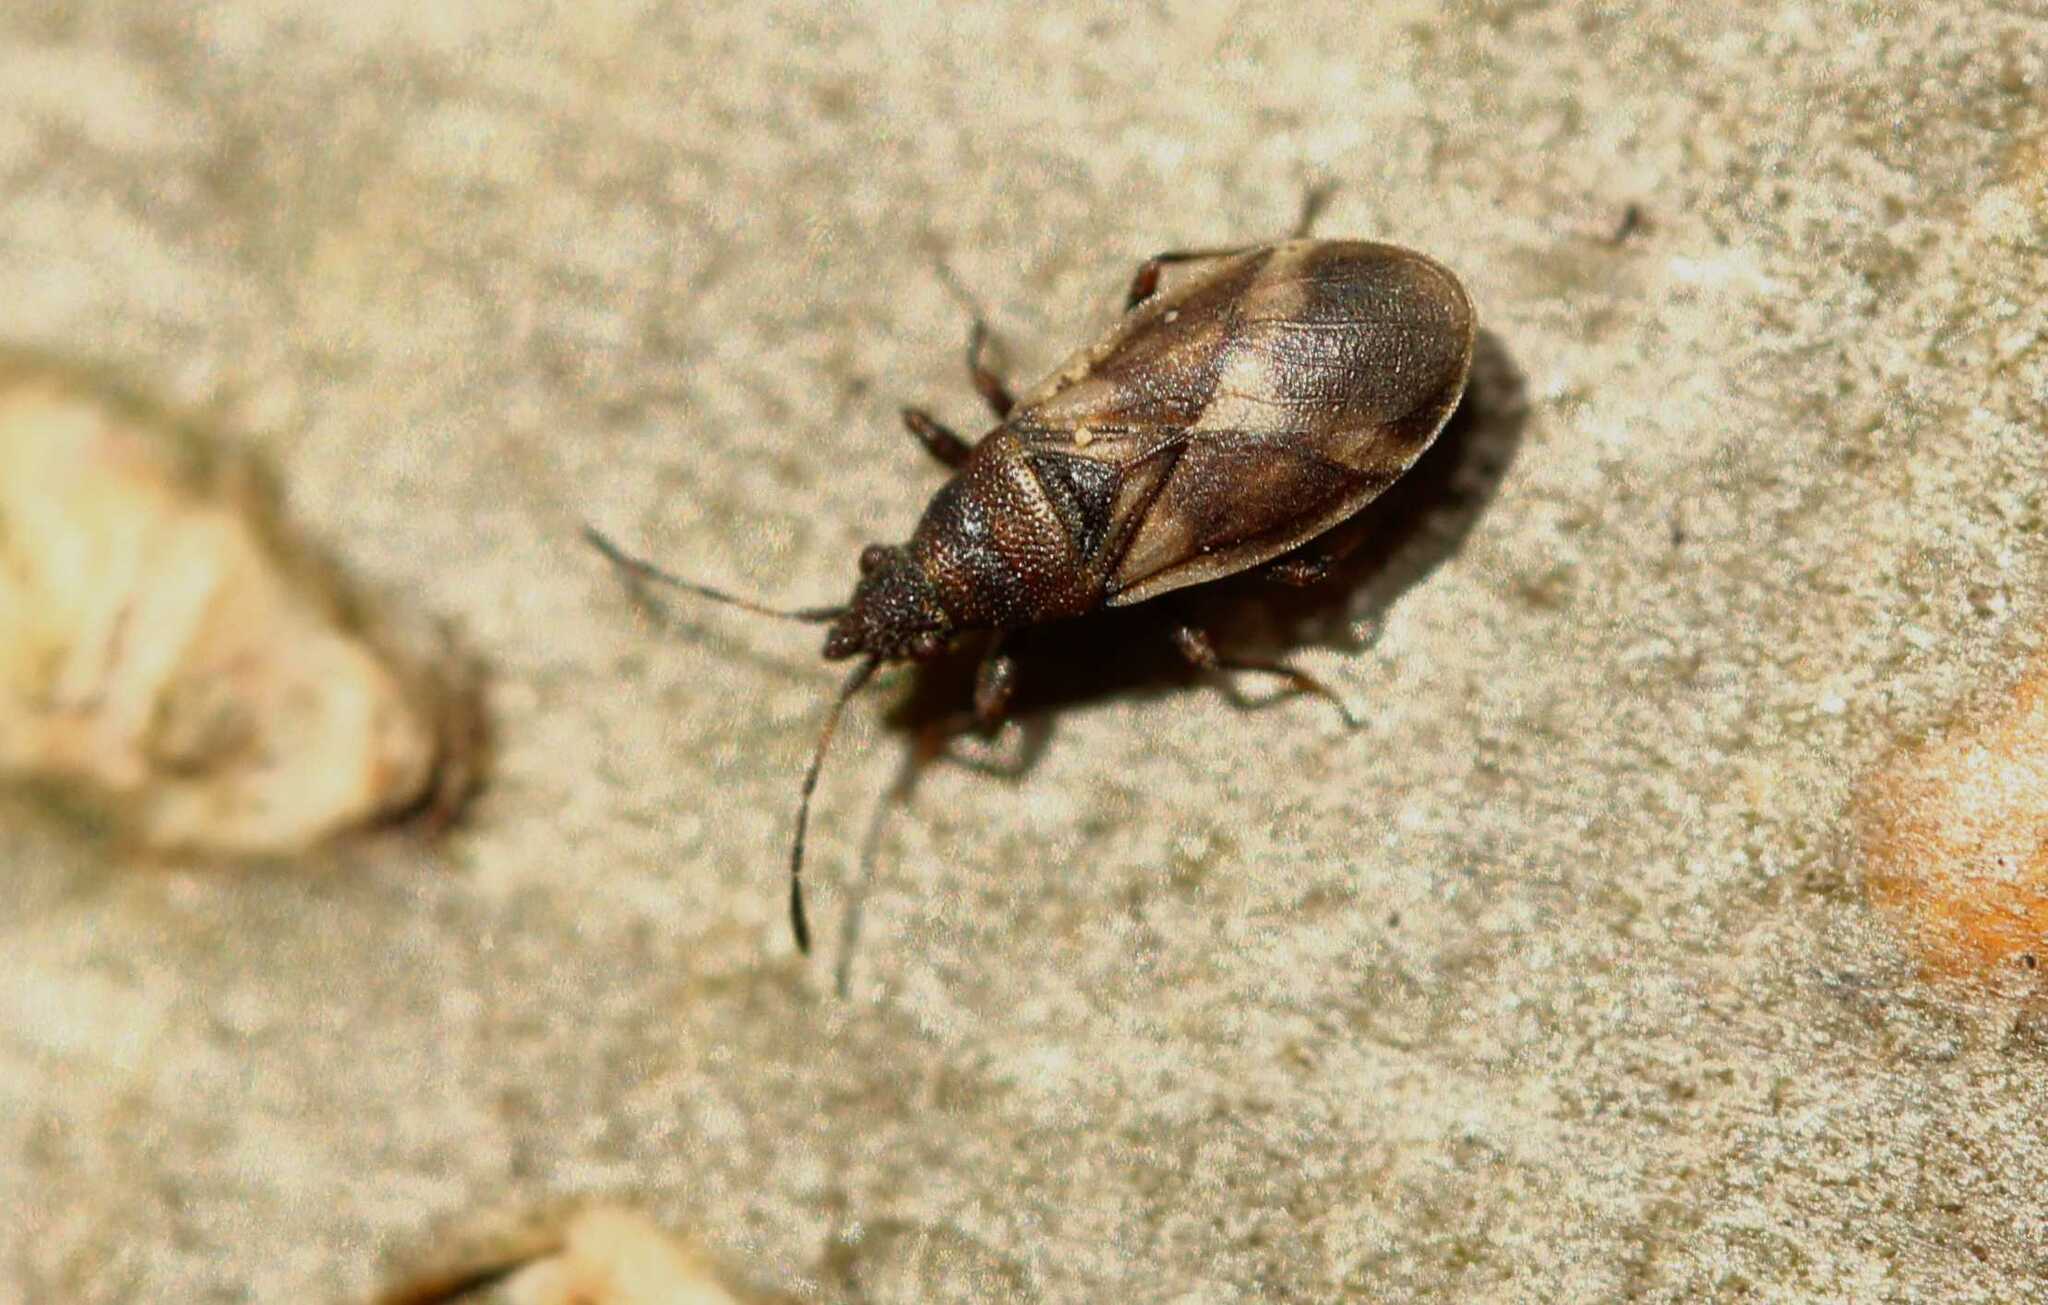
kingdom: Animalia
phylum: Arthropoda
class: Insecta
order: Hemiptera
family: Oxycarenidae
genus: Oxycarenus
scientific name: Oxycarenus modestus
